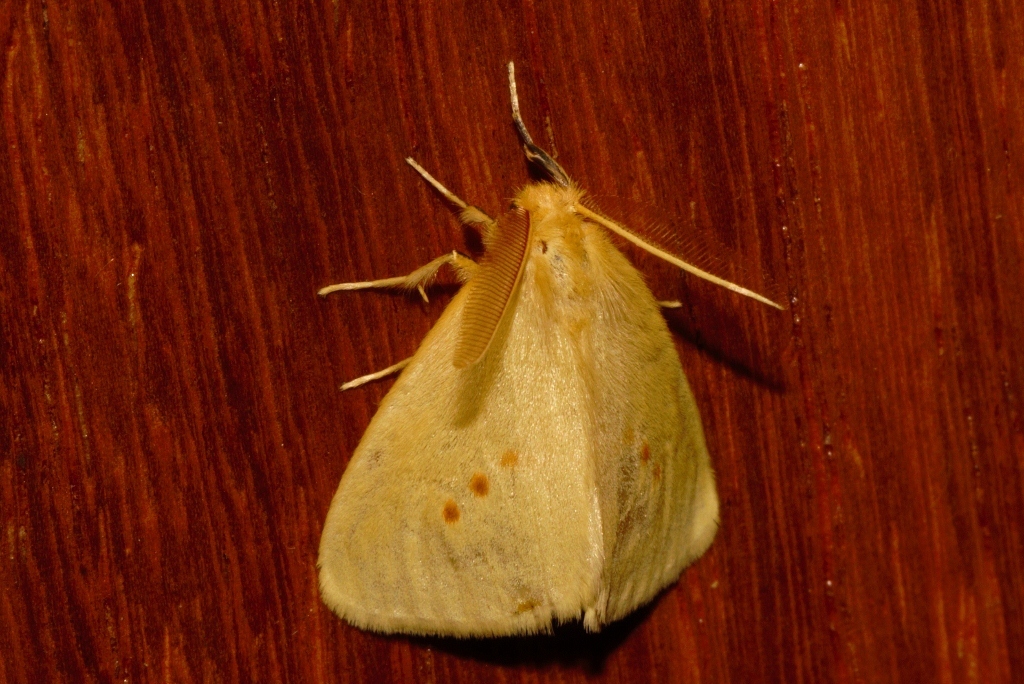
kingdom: Animalia
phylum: Arthropoda
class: Insecta
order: Lepidoptera
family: Erebidae
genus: Crorema
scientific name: Crorema fulvinotata
